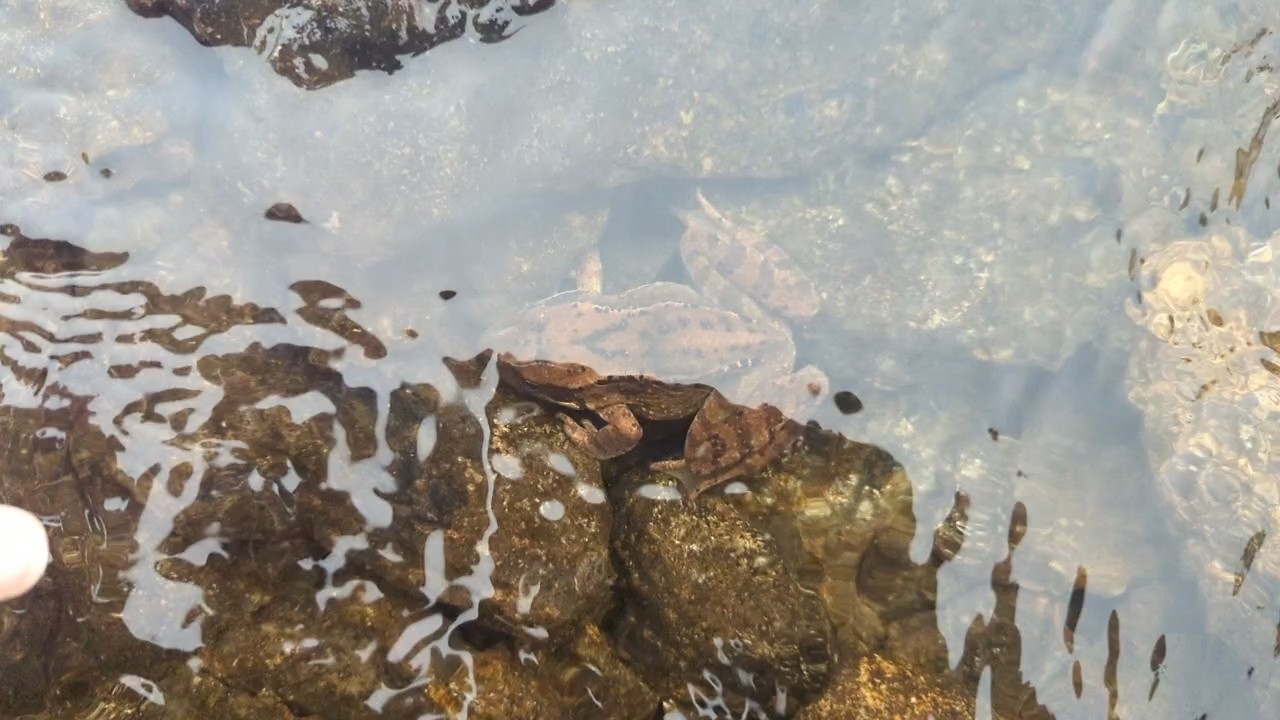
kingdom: Animalia
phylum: Chordata
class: Amphibia
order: Anura
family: Ranidae
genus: Rana
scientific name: Rana temporaria
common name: Common frog
